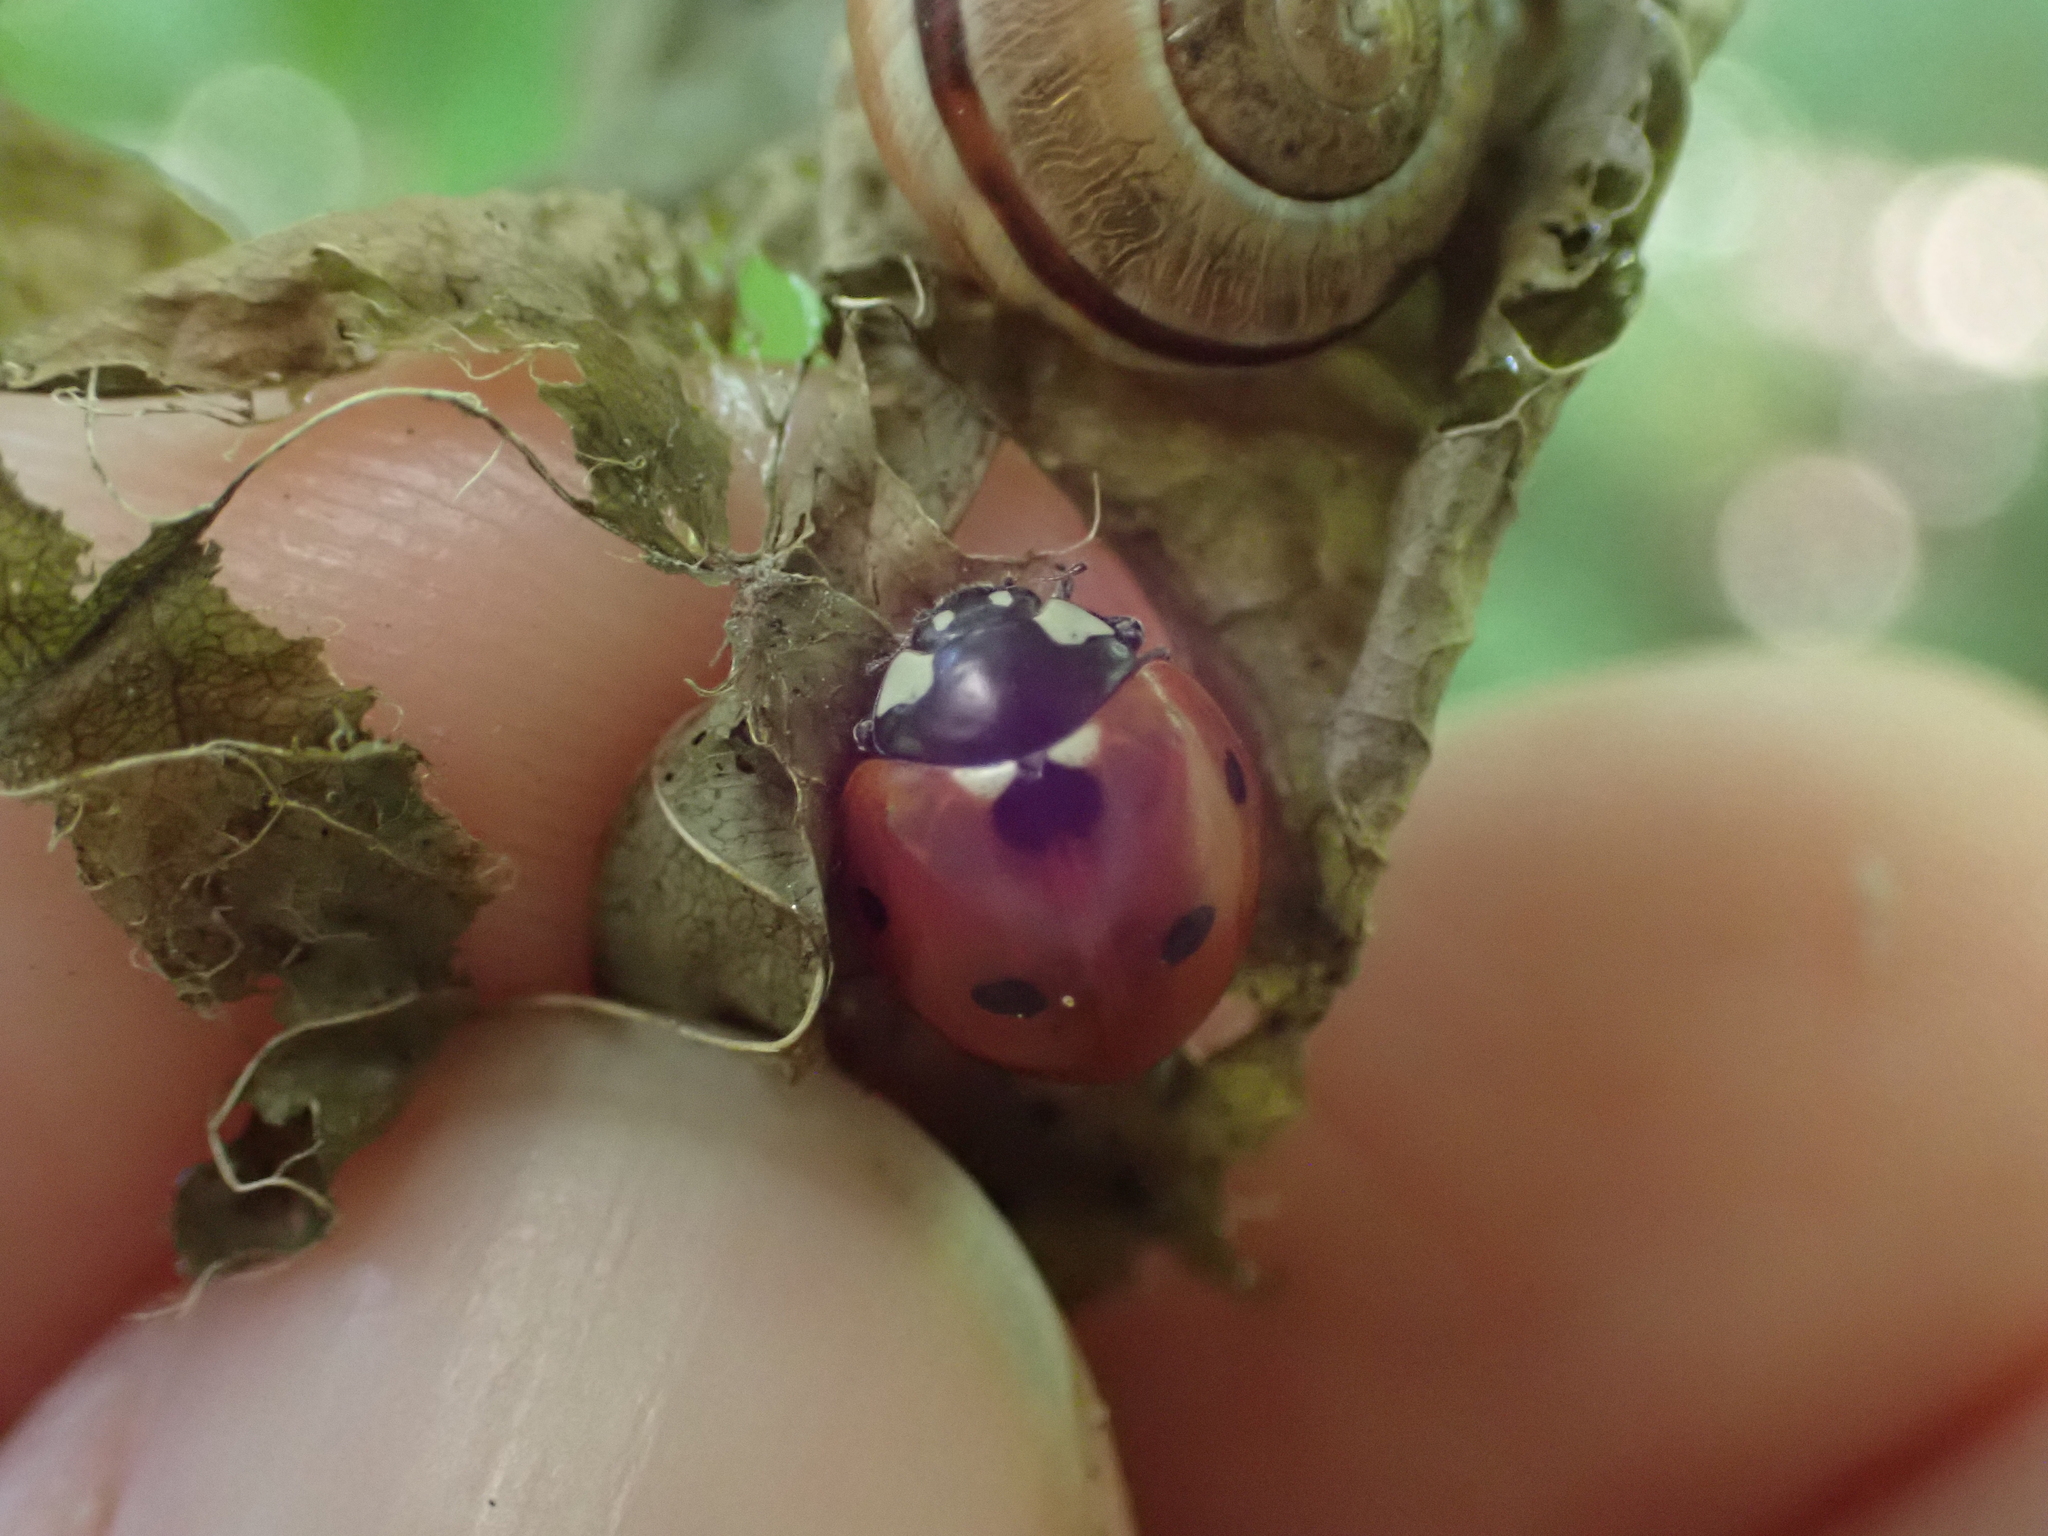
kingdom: Animalia
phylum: Arthropoda
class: Insecta
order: Coleoptera
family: Coccinellidae
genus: Coccinella
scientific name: Coccinella septempunctata
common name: Sevenspotted lady beetle
